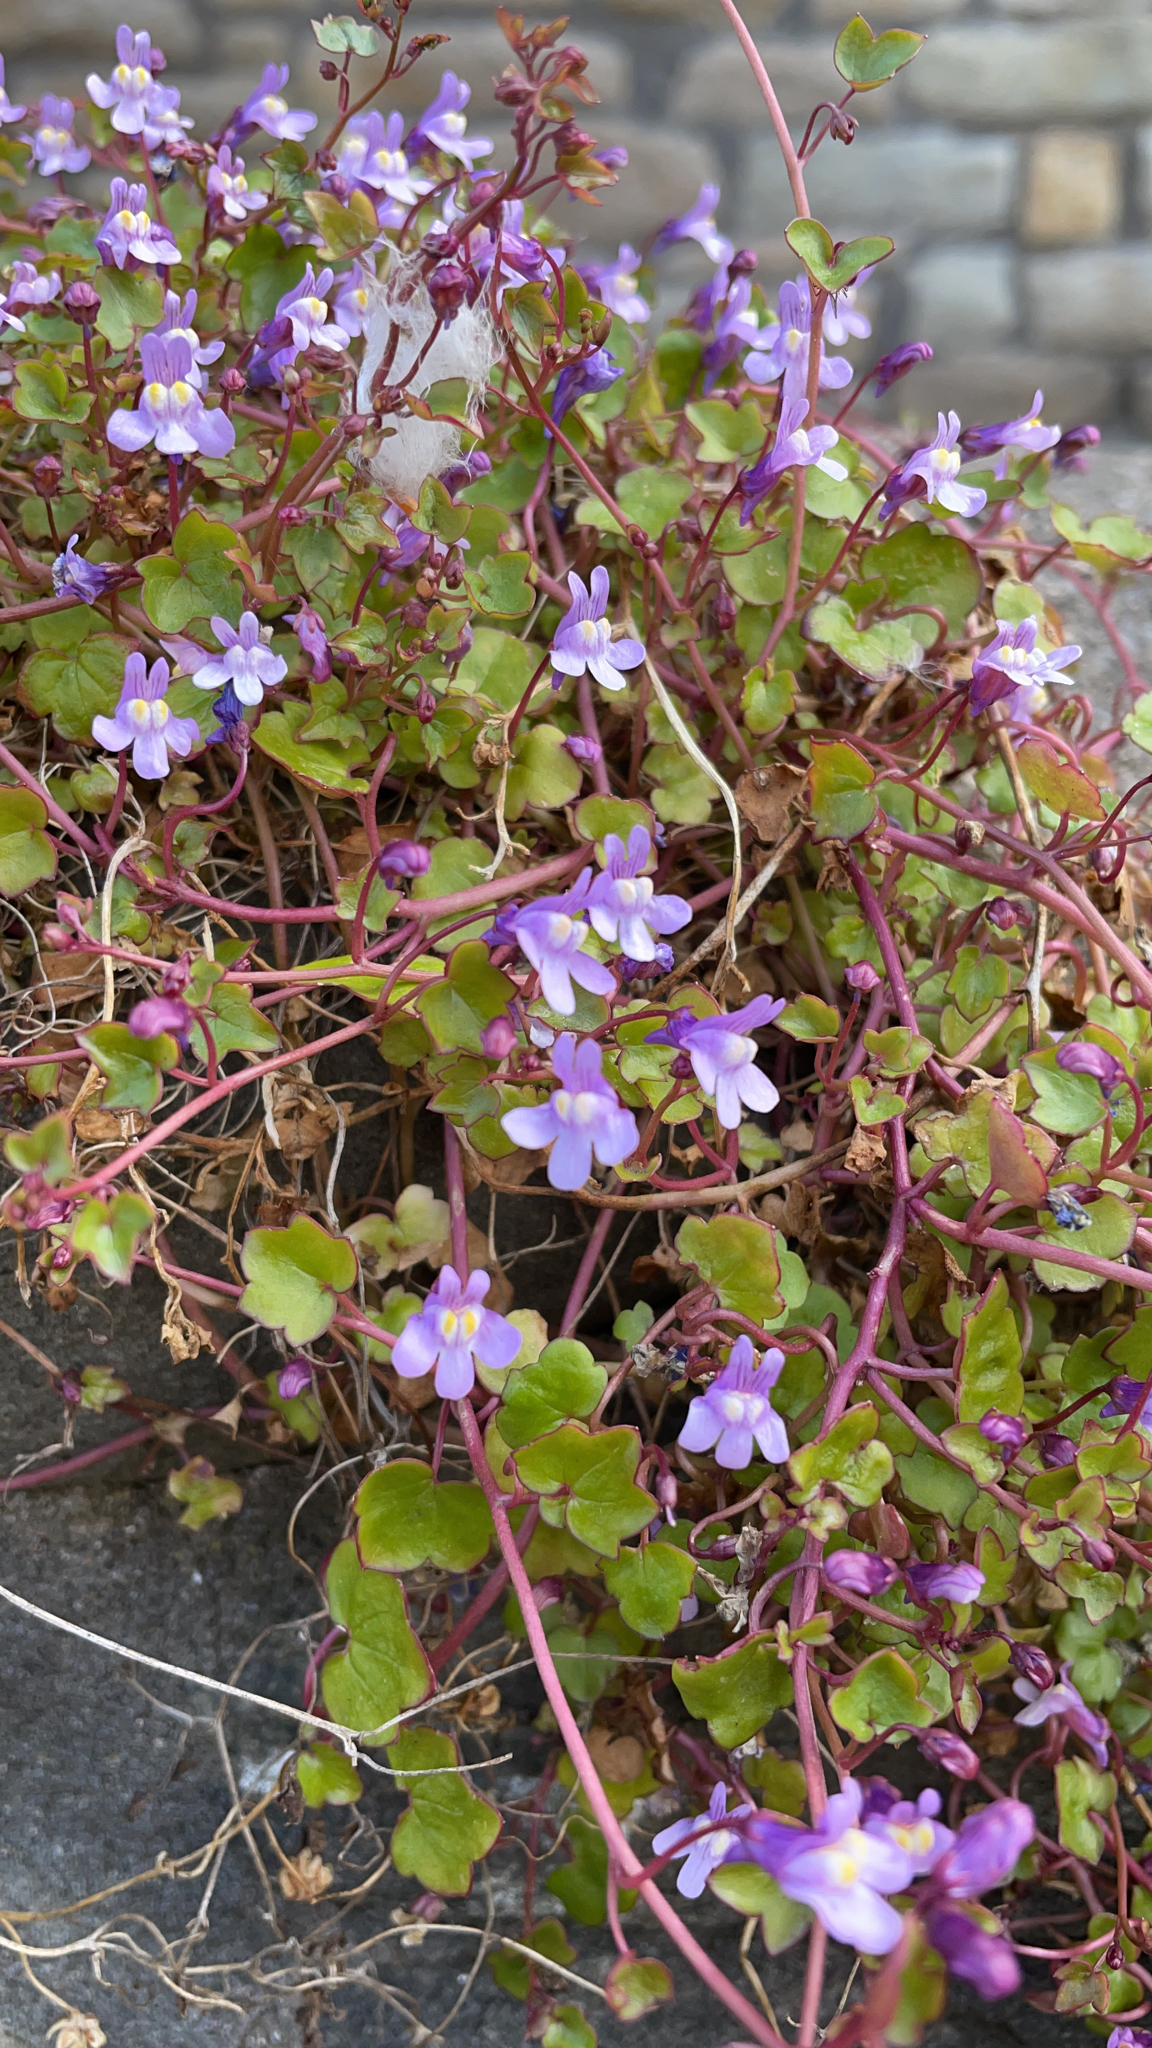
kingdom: Plantae
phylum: Tracheophyta
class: Magnoliopsida
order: Lamiales
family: Plantaginaceae
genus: Cymbalaria
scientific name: Cymbalaria muralis
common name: Ivy-leaved toadflax
